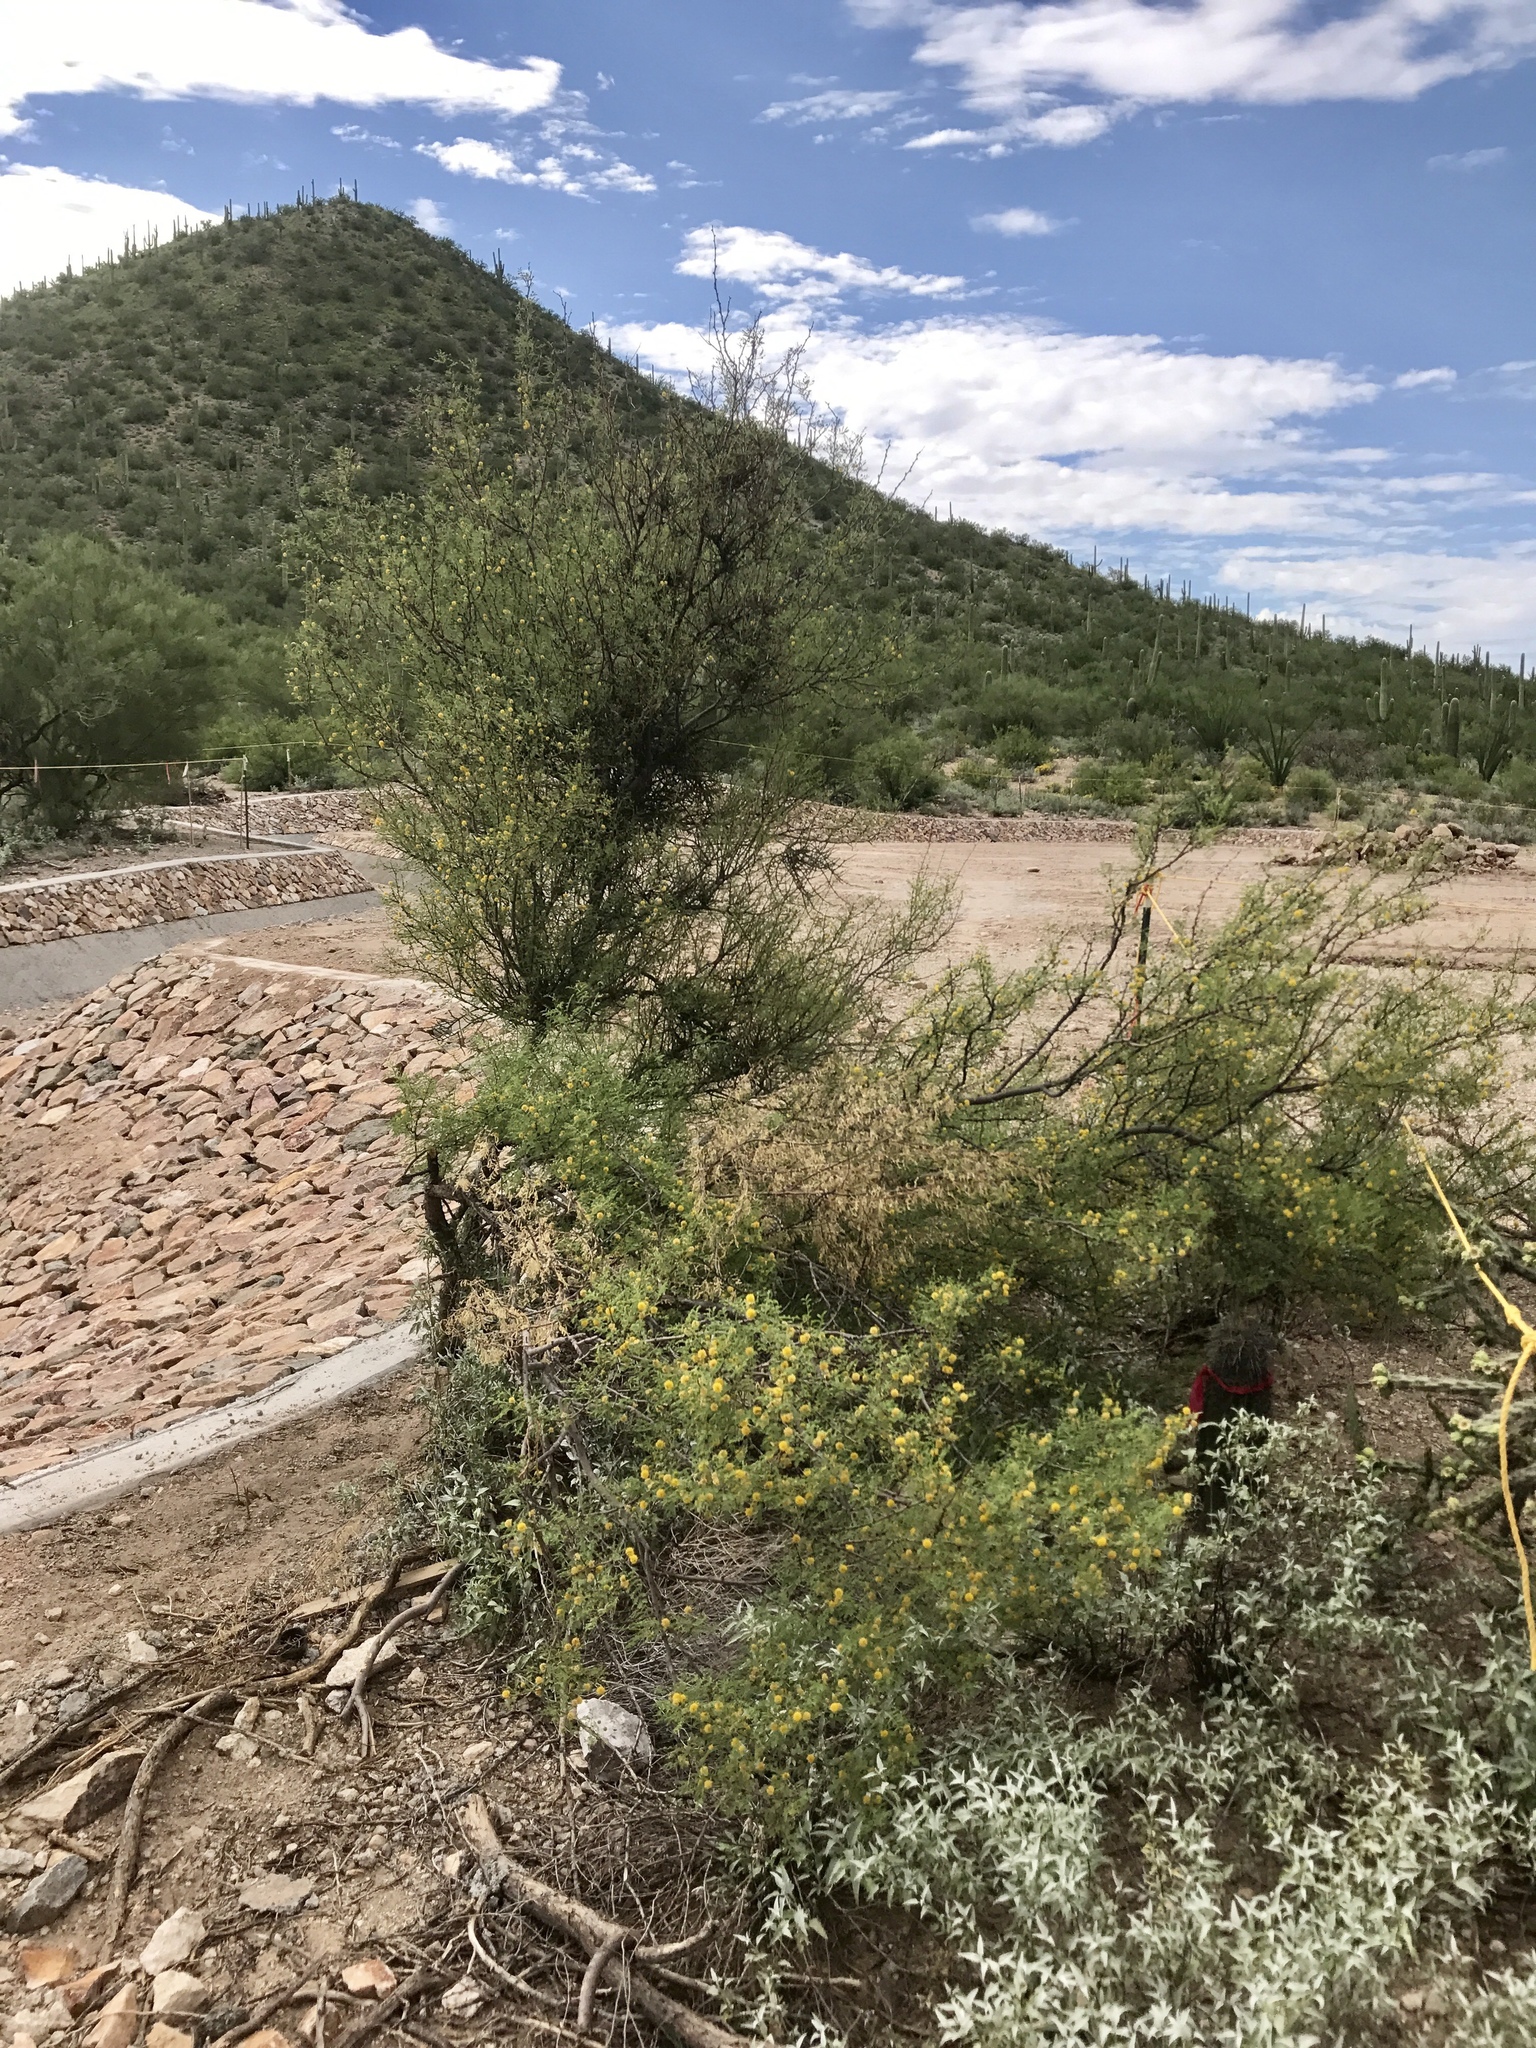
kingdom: Plantae
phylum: Tracheophyta
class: Magnoliopsida
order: Fabales
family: Fabaceae
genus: Vachellia
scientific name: Vachellia constricta
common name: Mescat acacia
